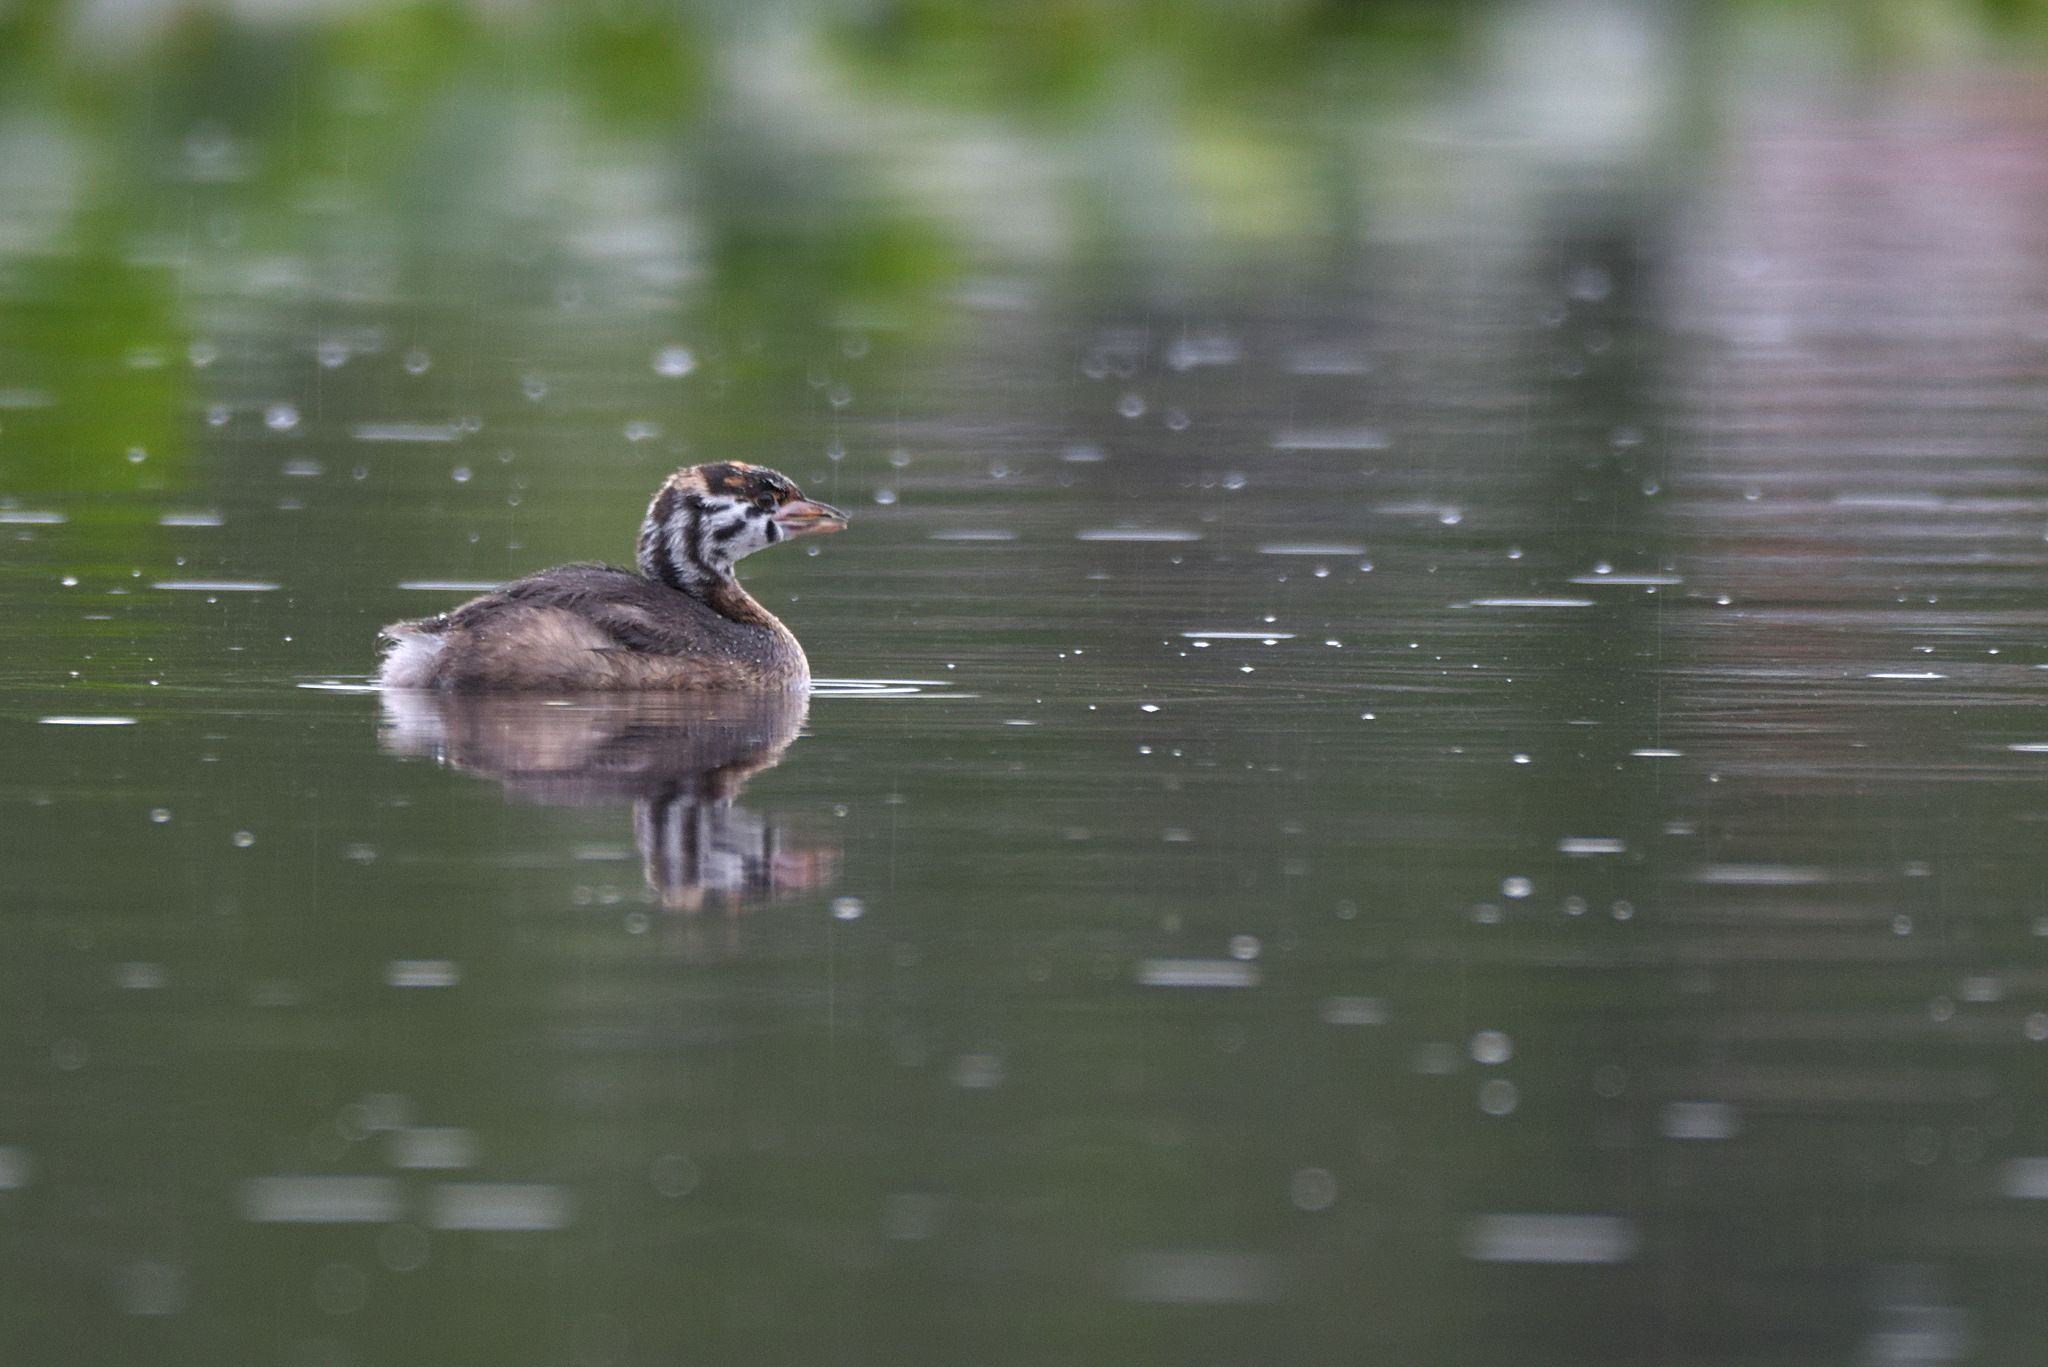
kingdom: Animalia
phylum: Chordata
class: Aves
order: Podicipediformes
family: Podicipedidae
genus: Podilymbus
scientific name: Podilymbus podiceps
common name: Pied-billed grebe
